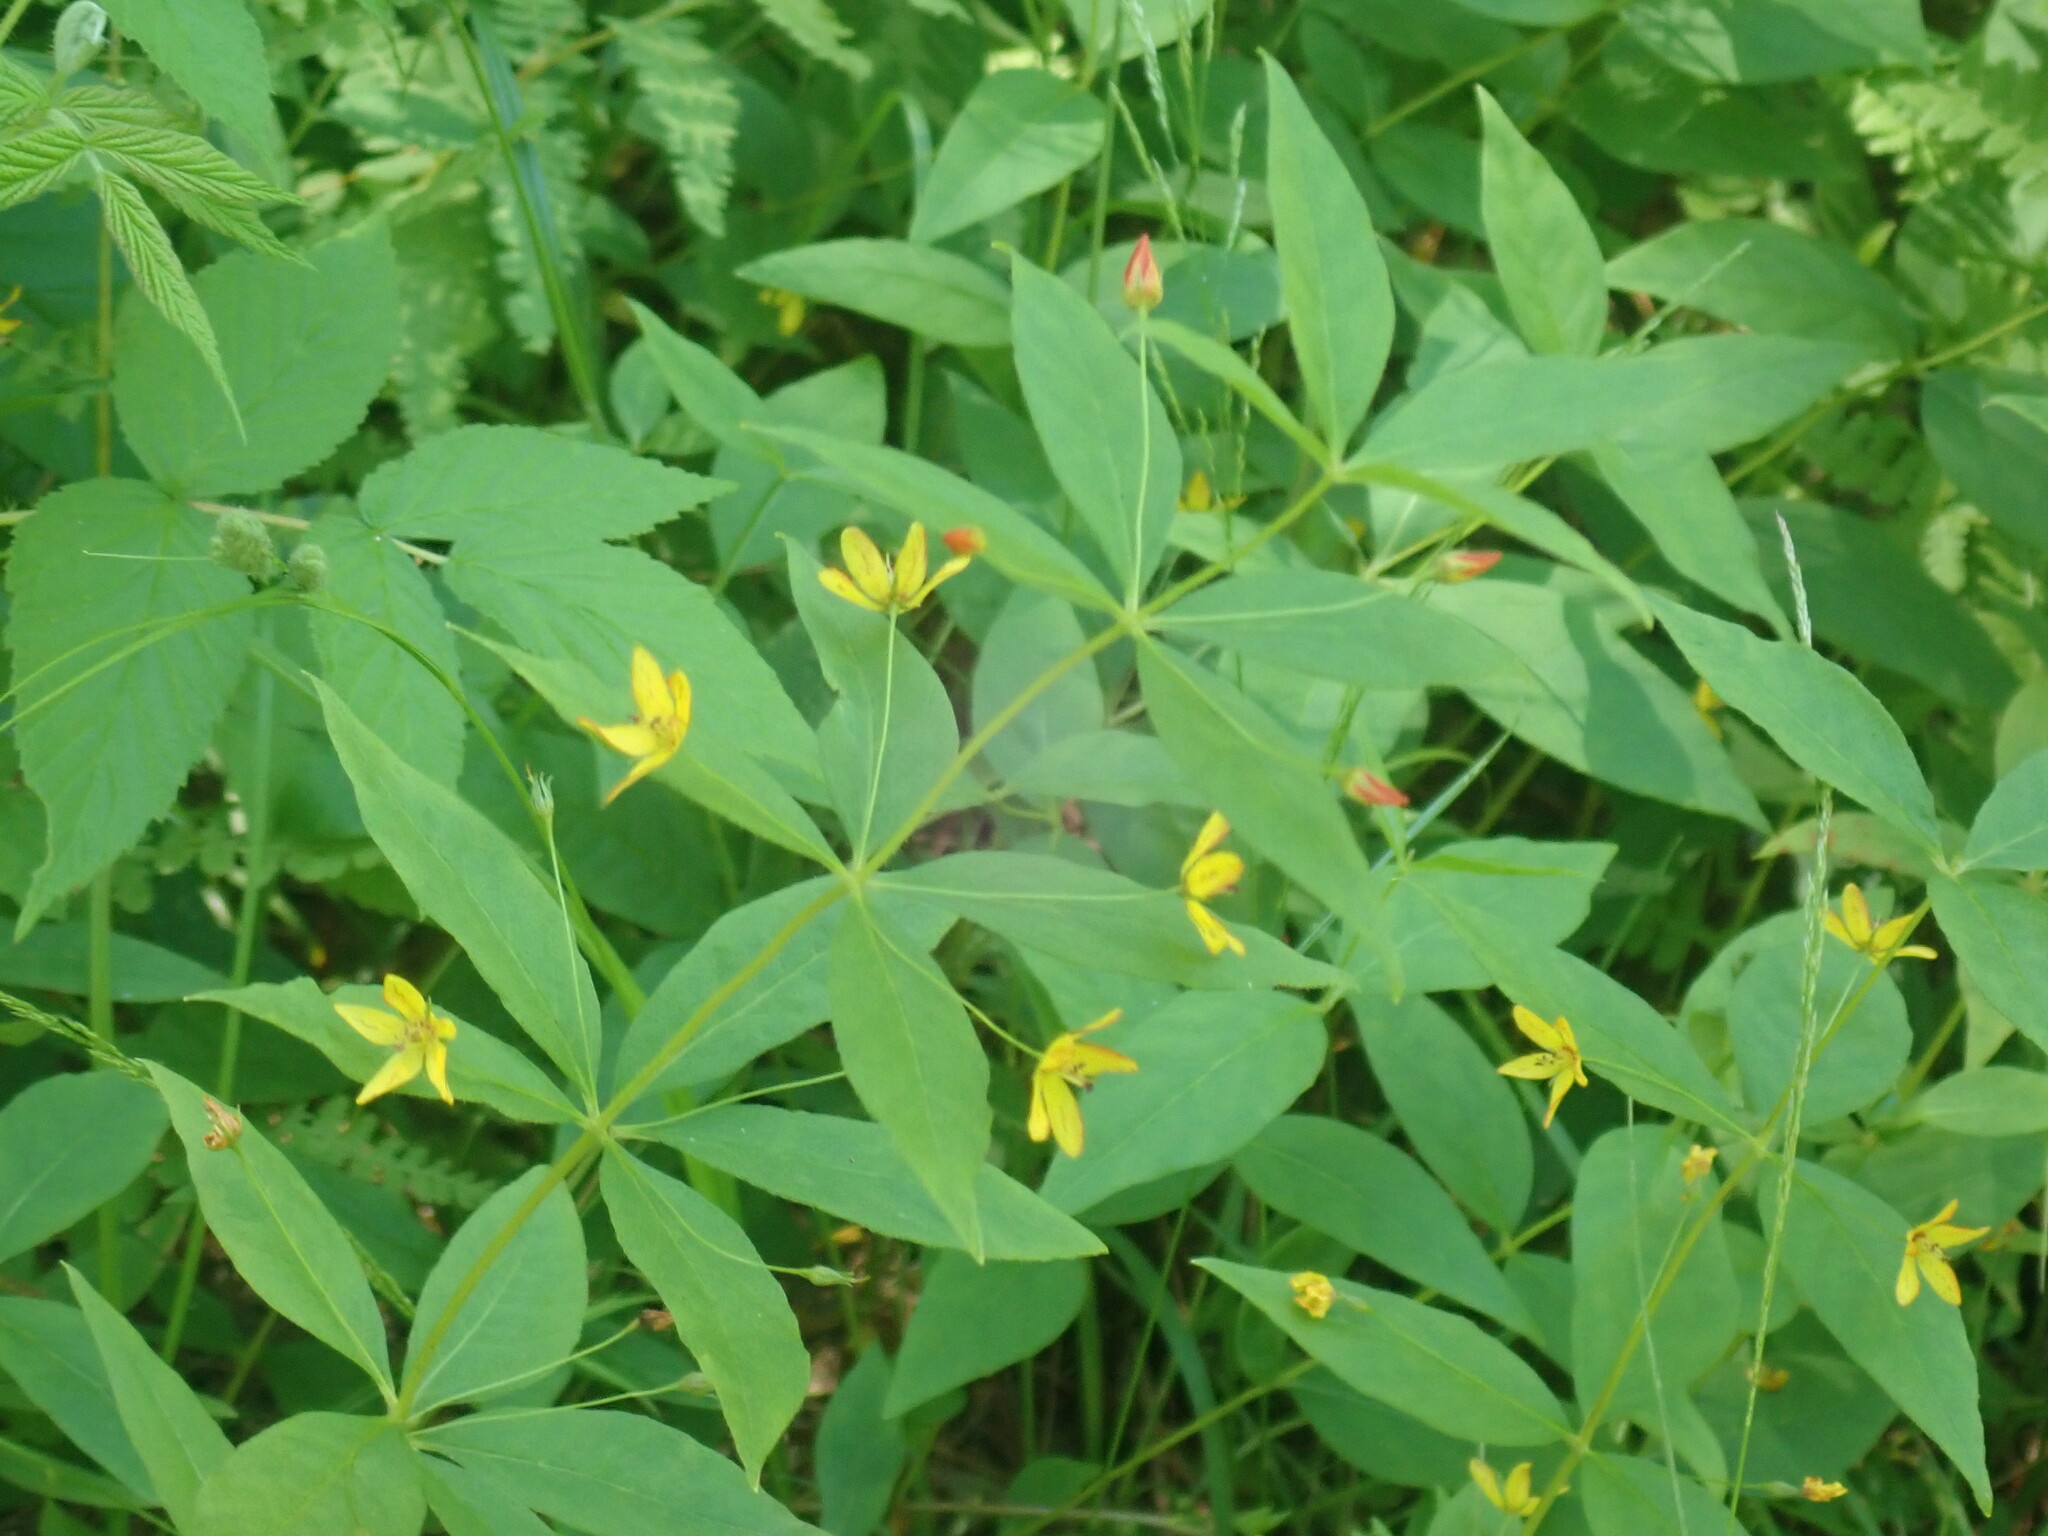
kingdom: Plantae
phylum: Tracheophyta
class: Magnoliopsida
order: Ericales
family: Primulaceae
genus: Lysimachia
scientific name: Lysimachia quadrifolia
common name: Whorled loosestrife
